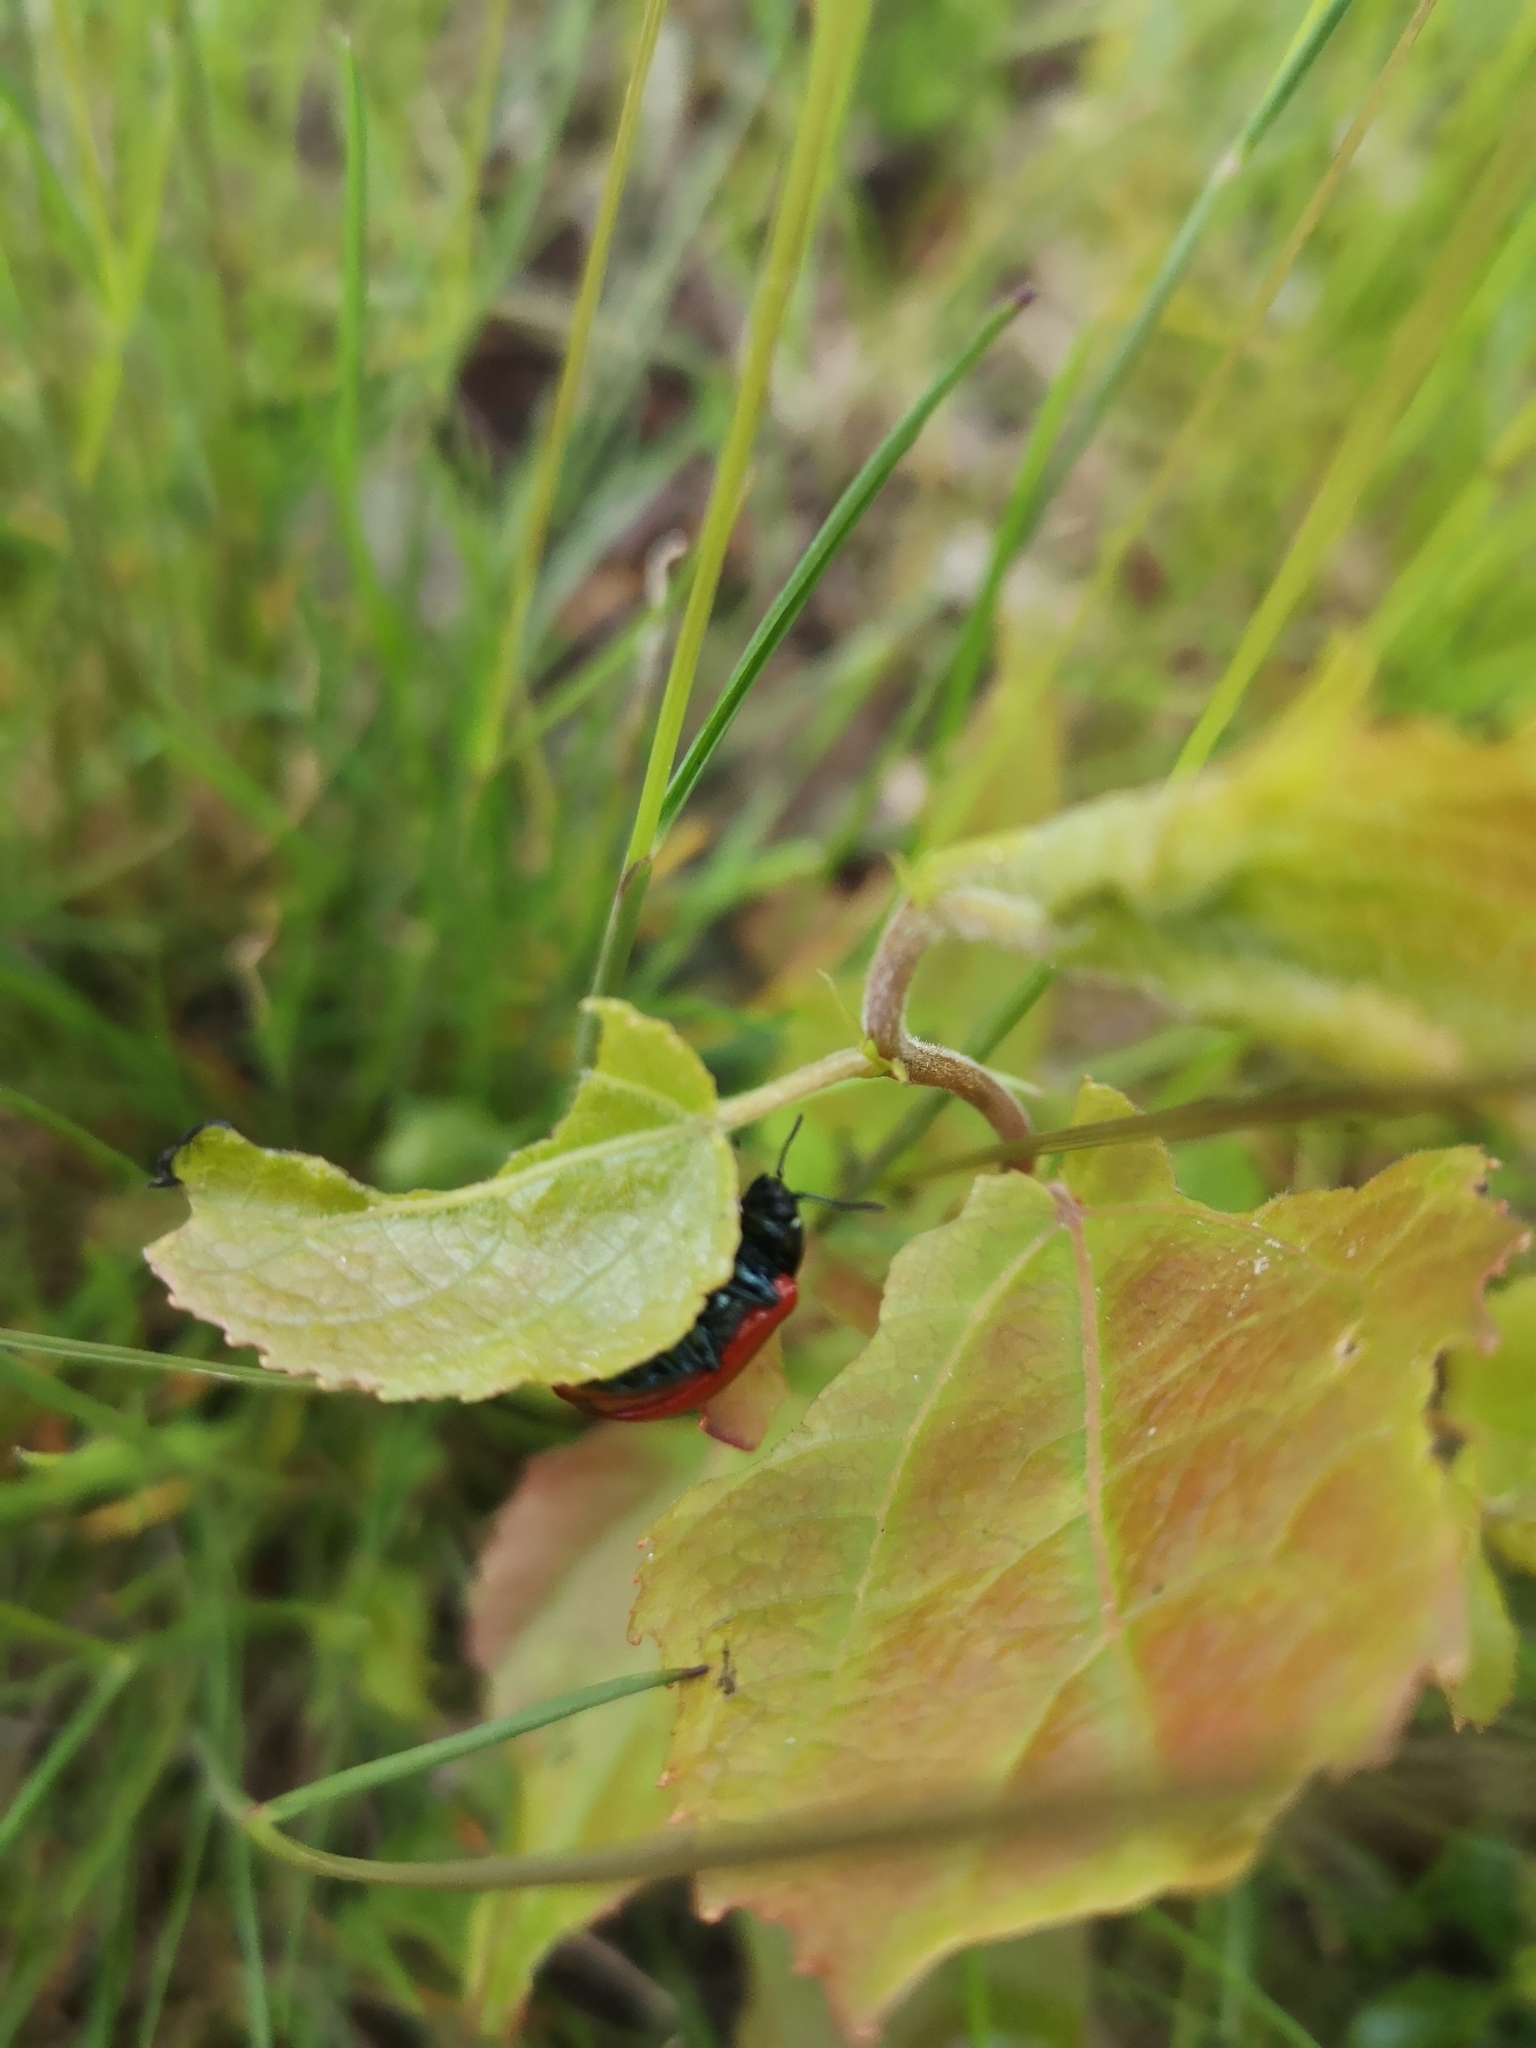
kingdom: Animalia
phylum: Arthropoda
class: Insecta
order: Coleoptera
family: Chrysomelidae
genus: Chrysomela
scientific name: Chrysomela populi
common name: Red poplar leaf beetle
